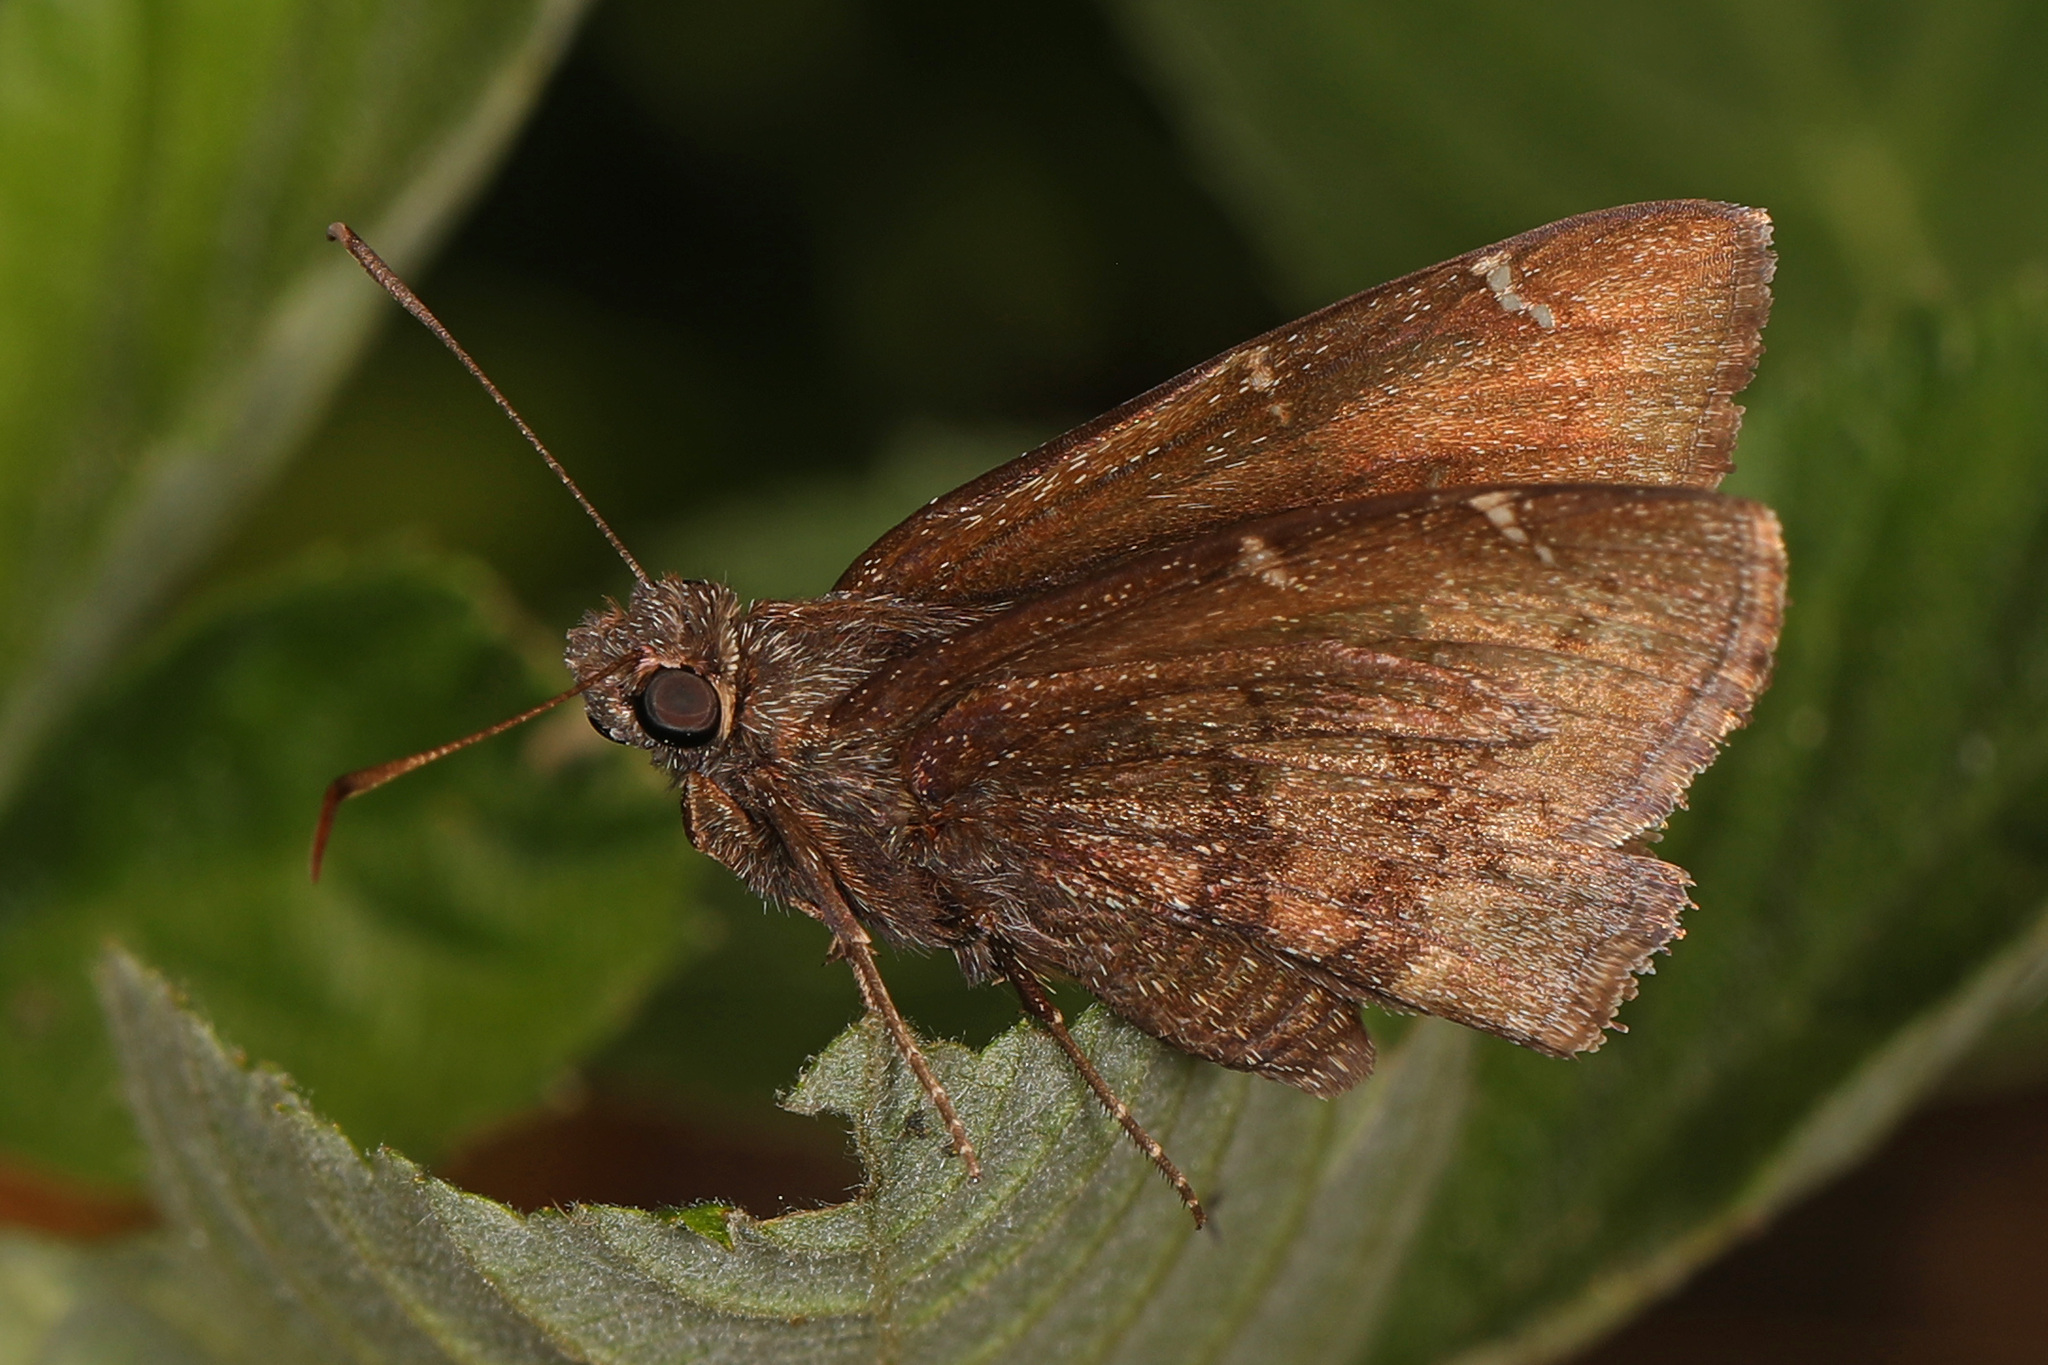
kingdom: Animalia
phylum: Arthropoda
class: Insecta
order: Lepidoptera
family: Hesperiidae
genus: Thorybes
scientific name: Thorybes pylades
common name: Northern cloudywing
